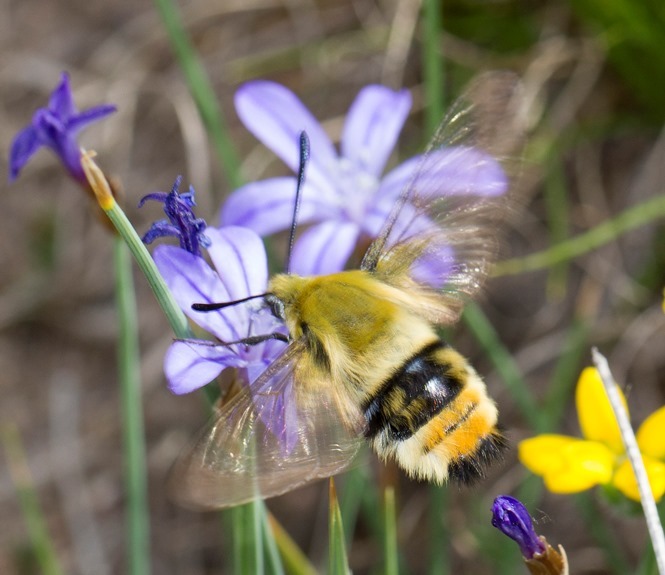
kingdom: Animalia
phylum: Arthropoda
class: Insecta
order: Lepidoptera
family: Sphingidae
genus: Hemaris
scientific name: Hemaris tityus
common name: Narrow-bordered bee hawk-moth
